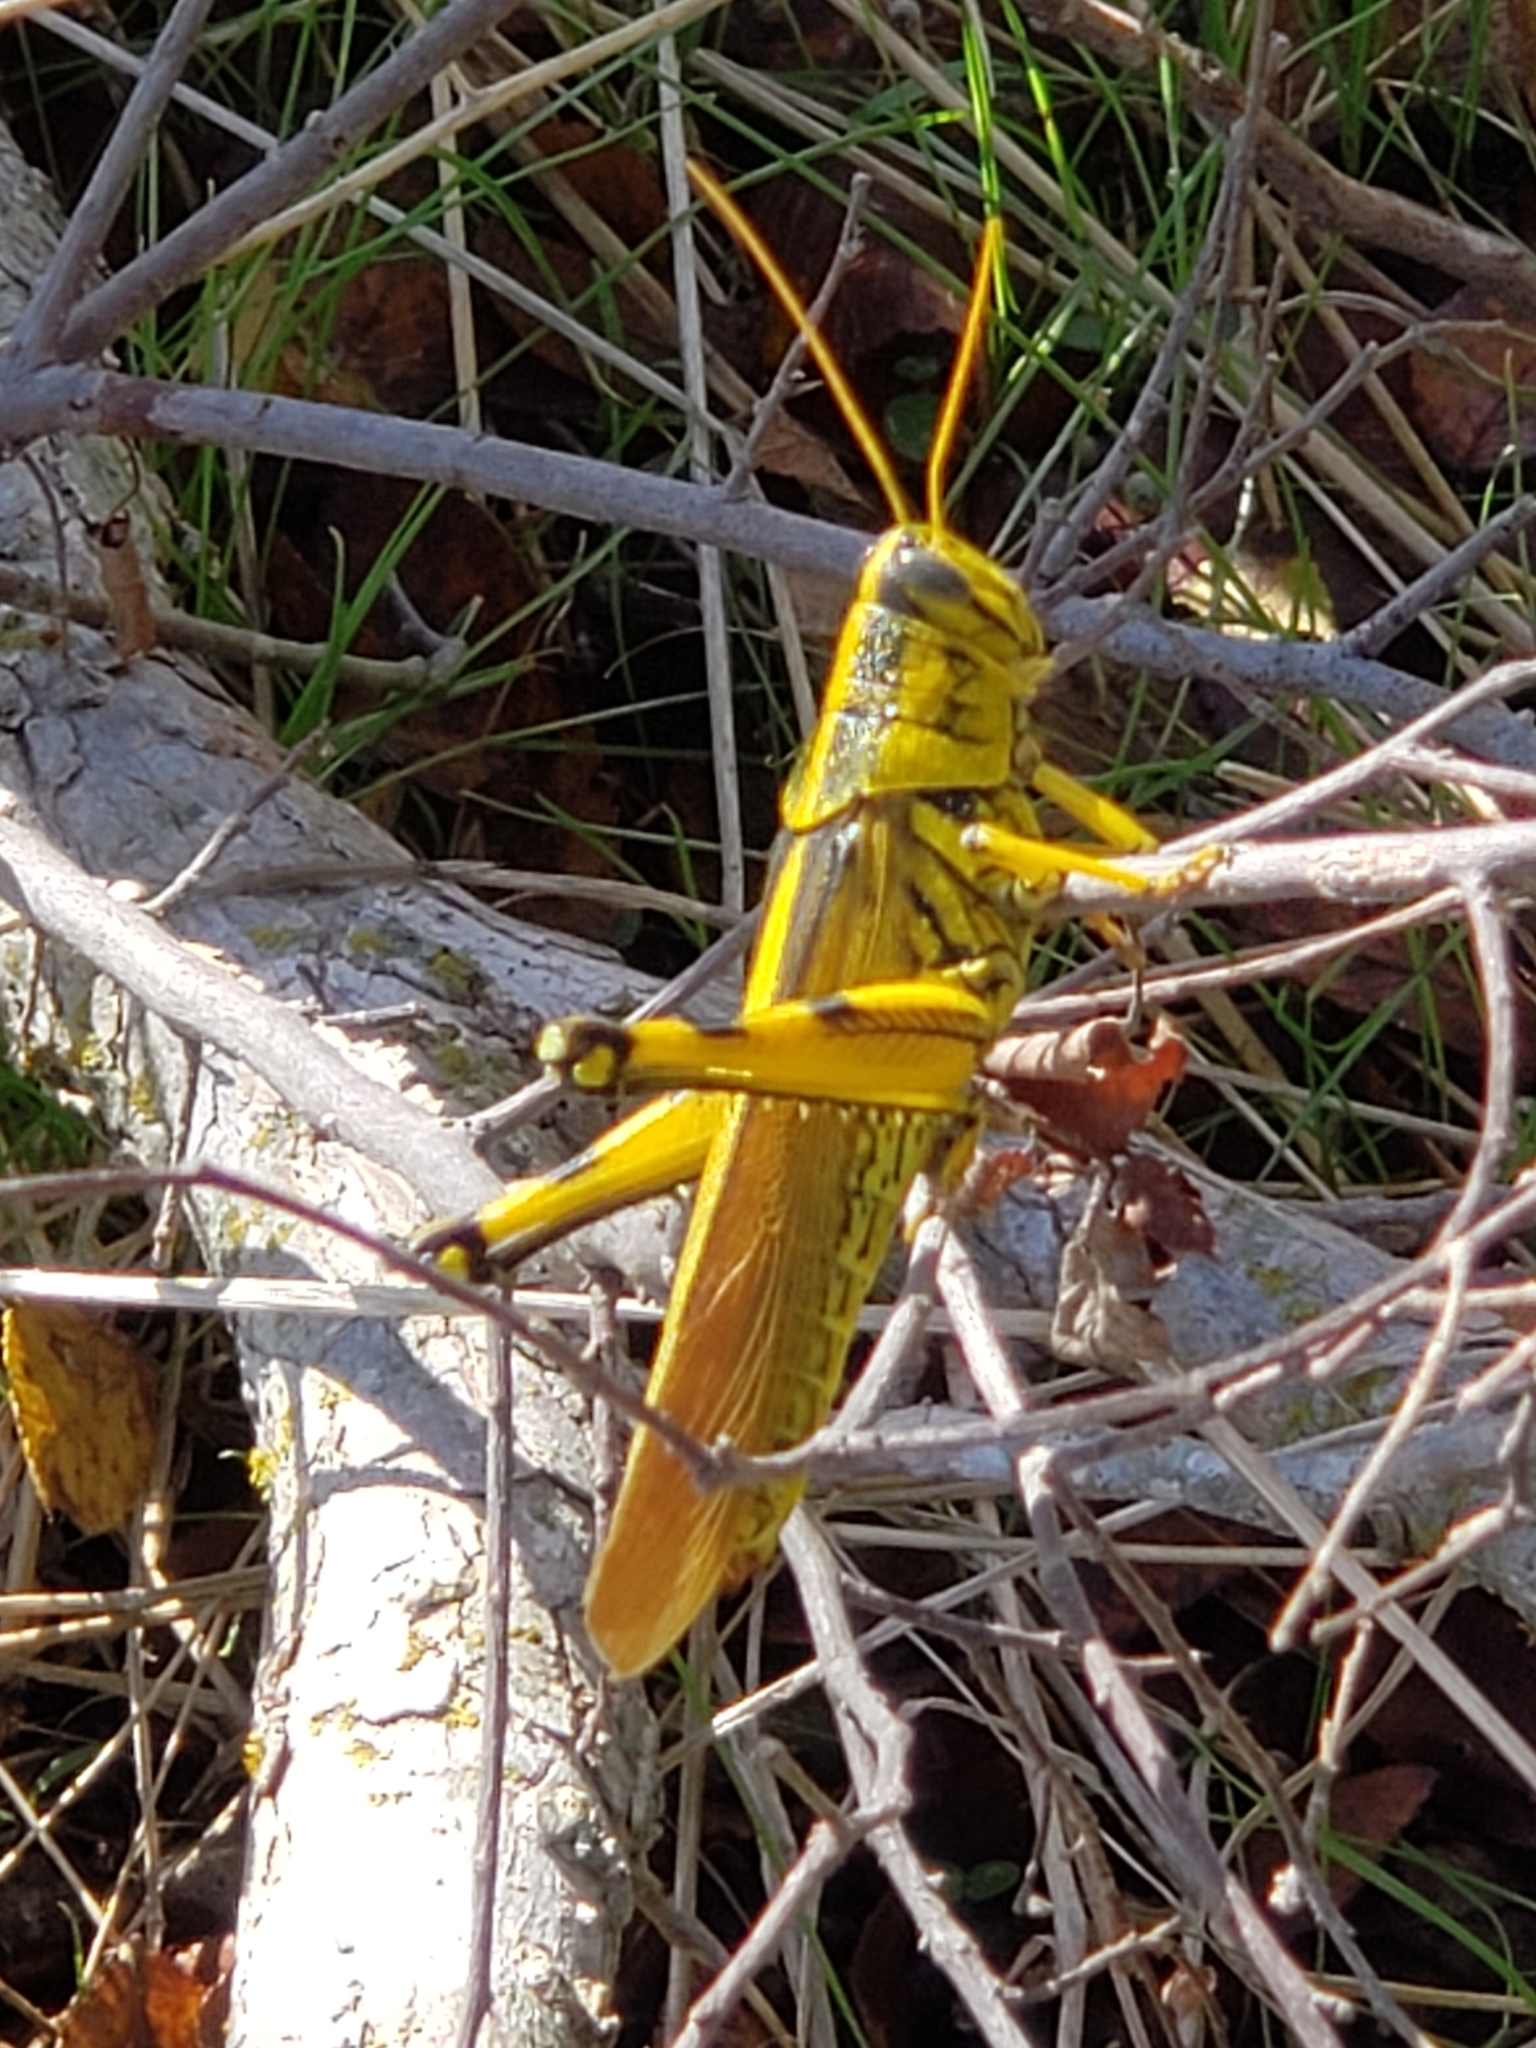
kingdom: Animalia
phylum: Arthropoda
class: Insecta
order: Orthoptera
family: Acrididae
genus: Schistocerca
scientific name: Schistocerca lineata
